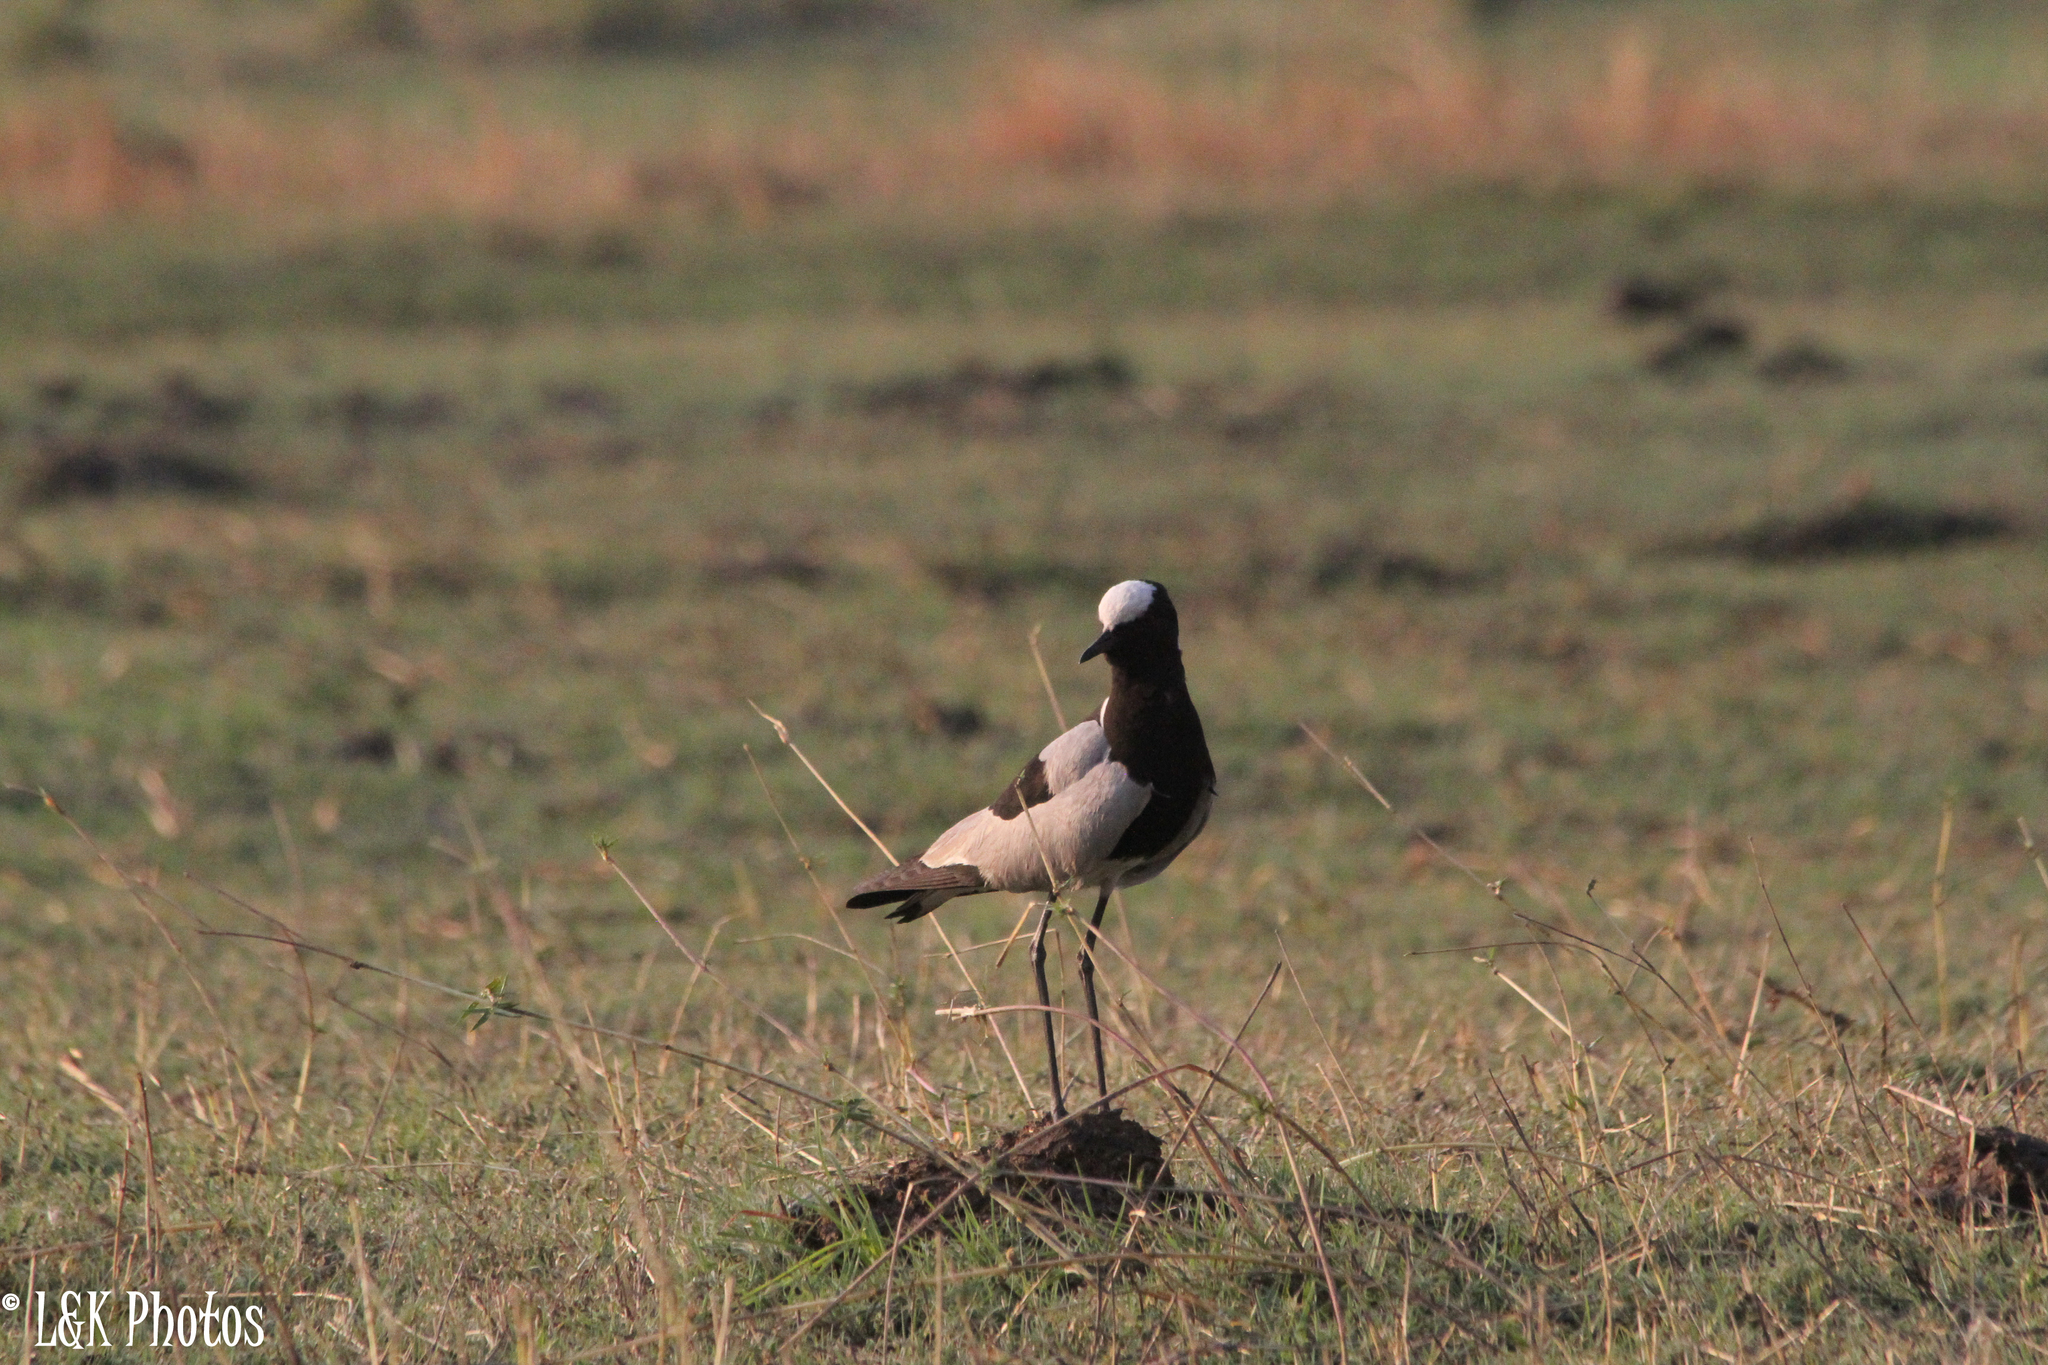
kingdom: Animalia
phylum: Chordata
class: Aves
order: Charadriiformes
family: Charadriidae
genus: Vanellus
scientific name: Vanellus armatus
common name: Blacksmith lapwing
